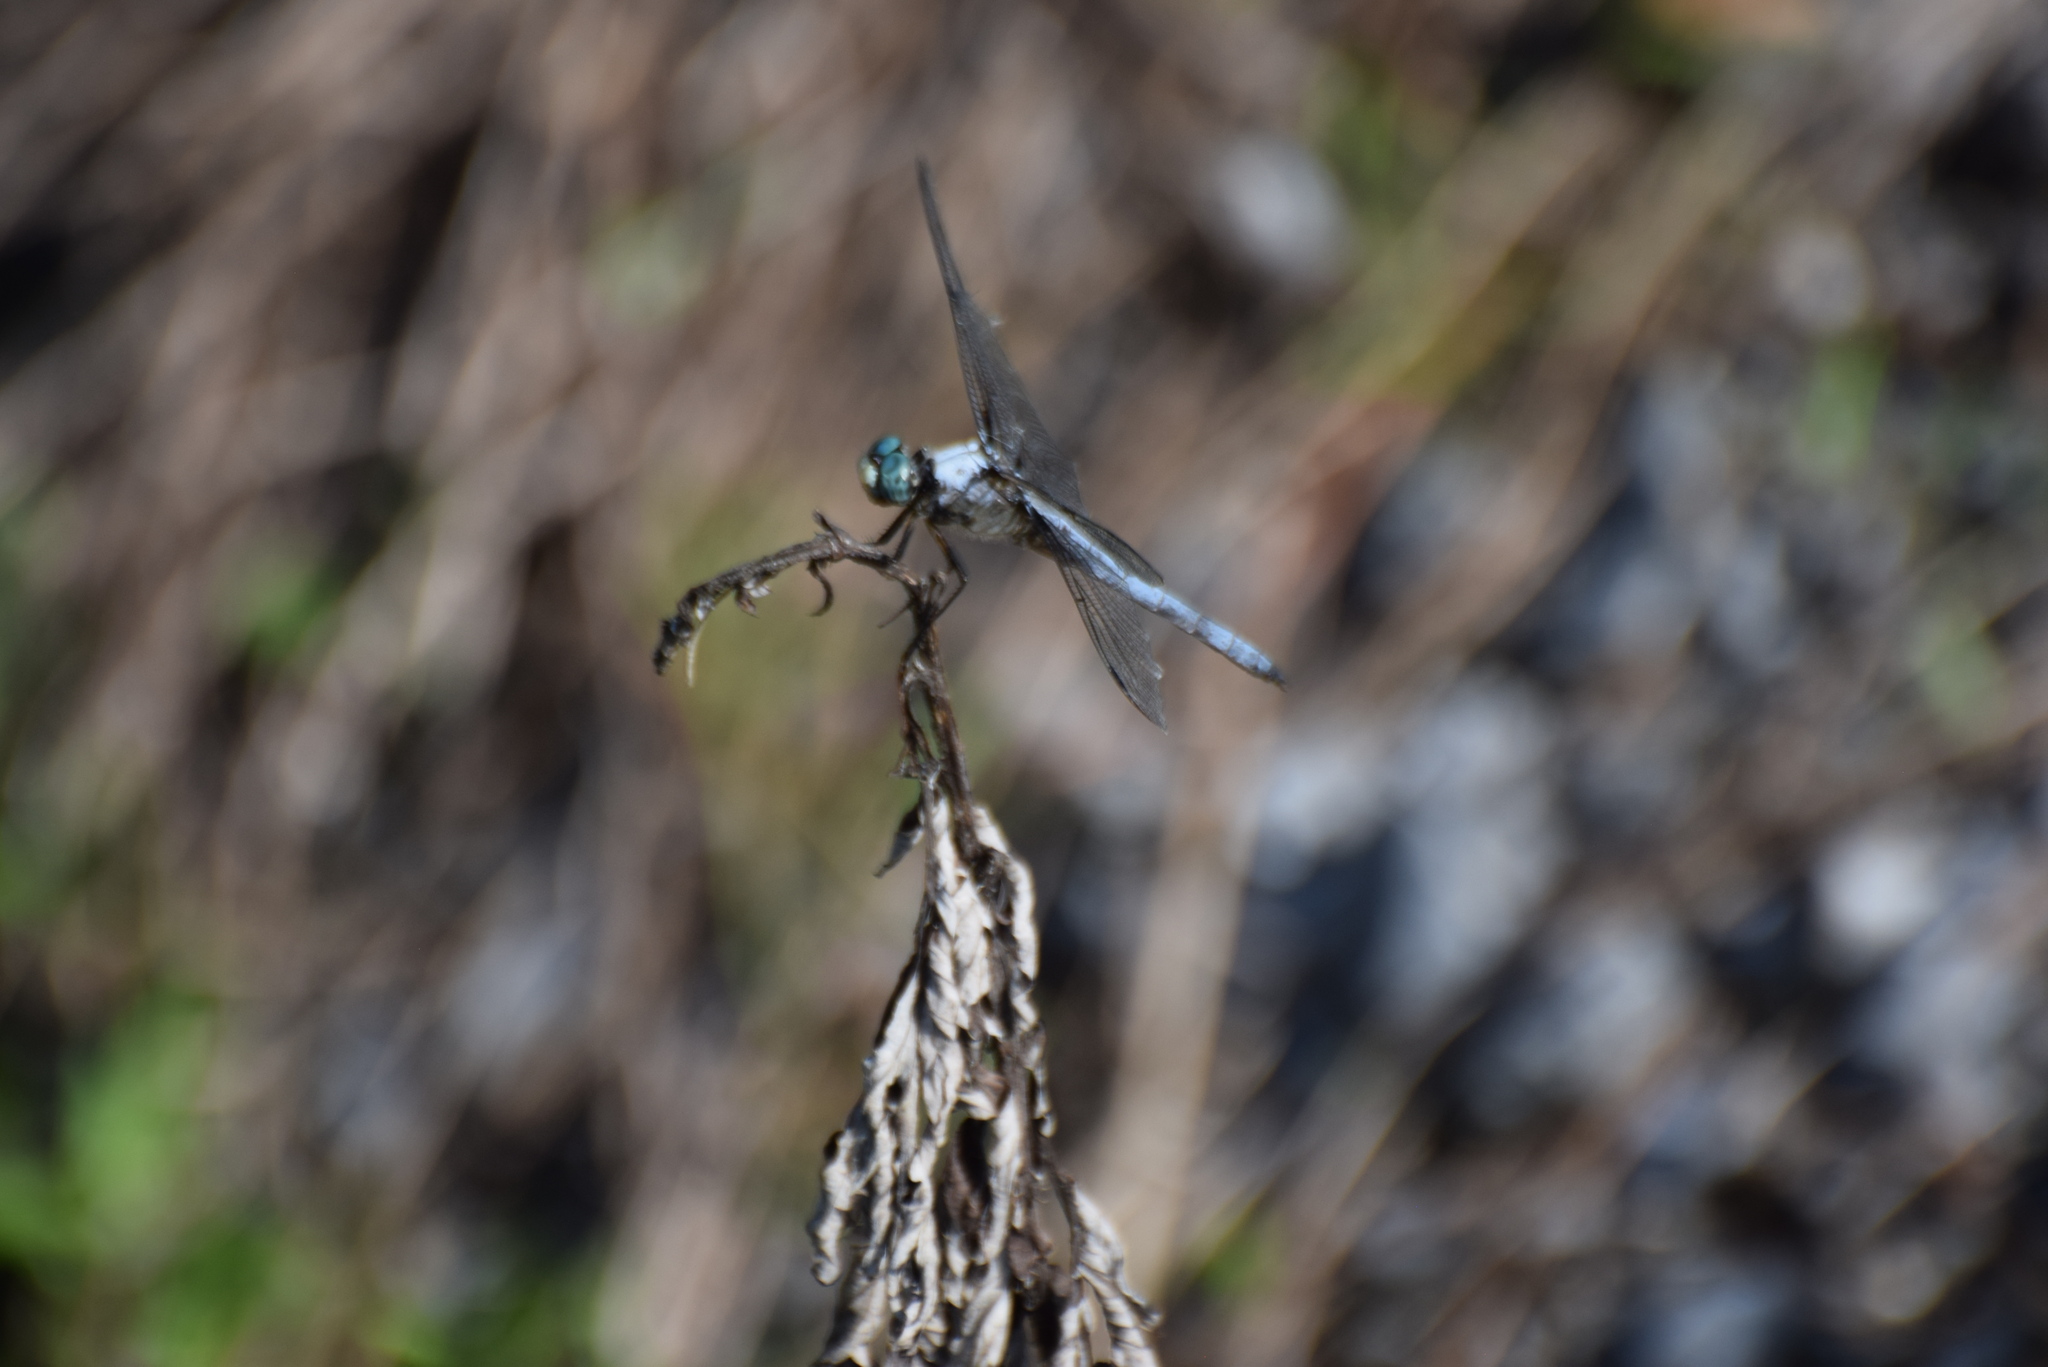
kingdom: Animalia
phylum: Arthropoda
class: Insecta
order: Odonata
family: Libellulidae
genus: Libellula
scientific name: Libellula vibrans
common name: Great blue skimmer
